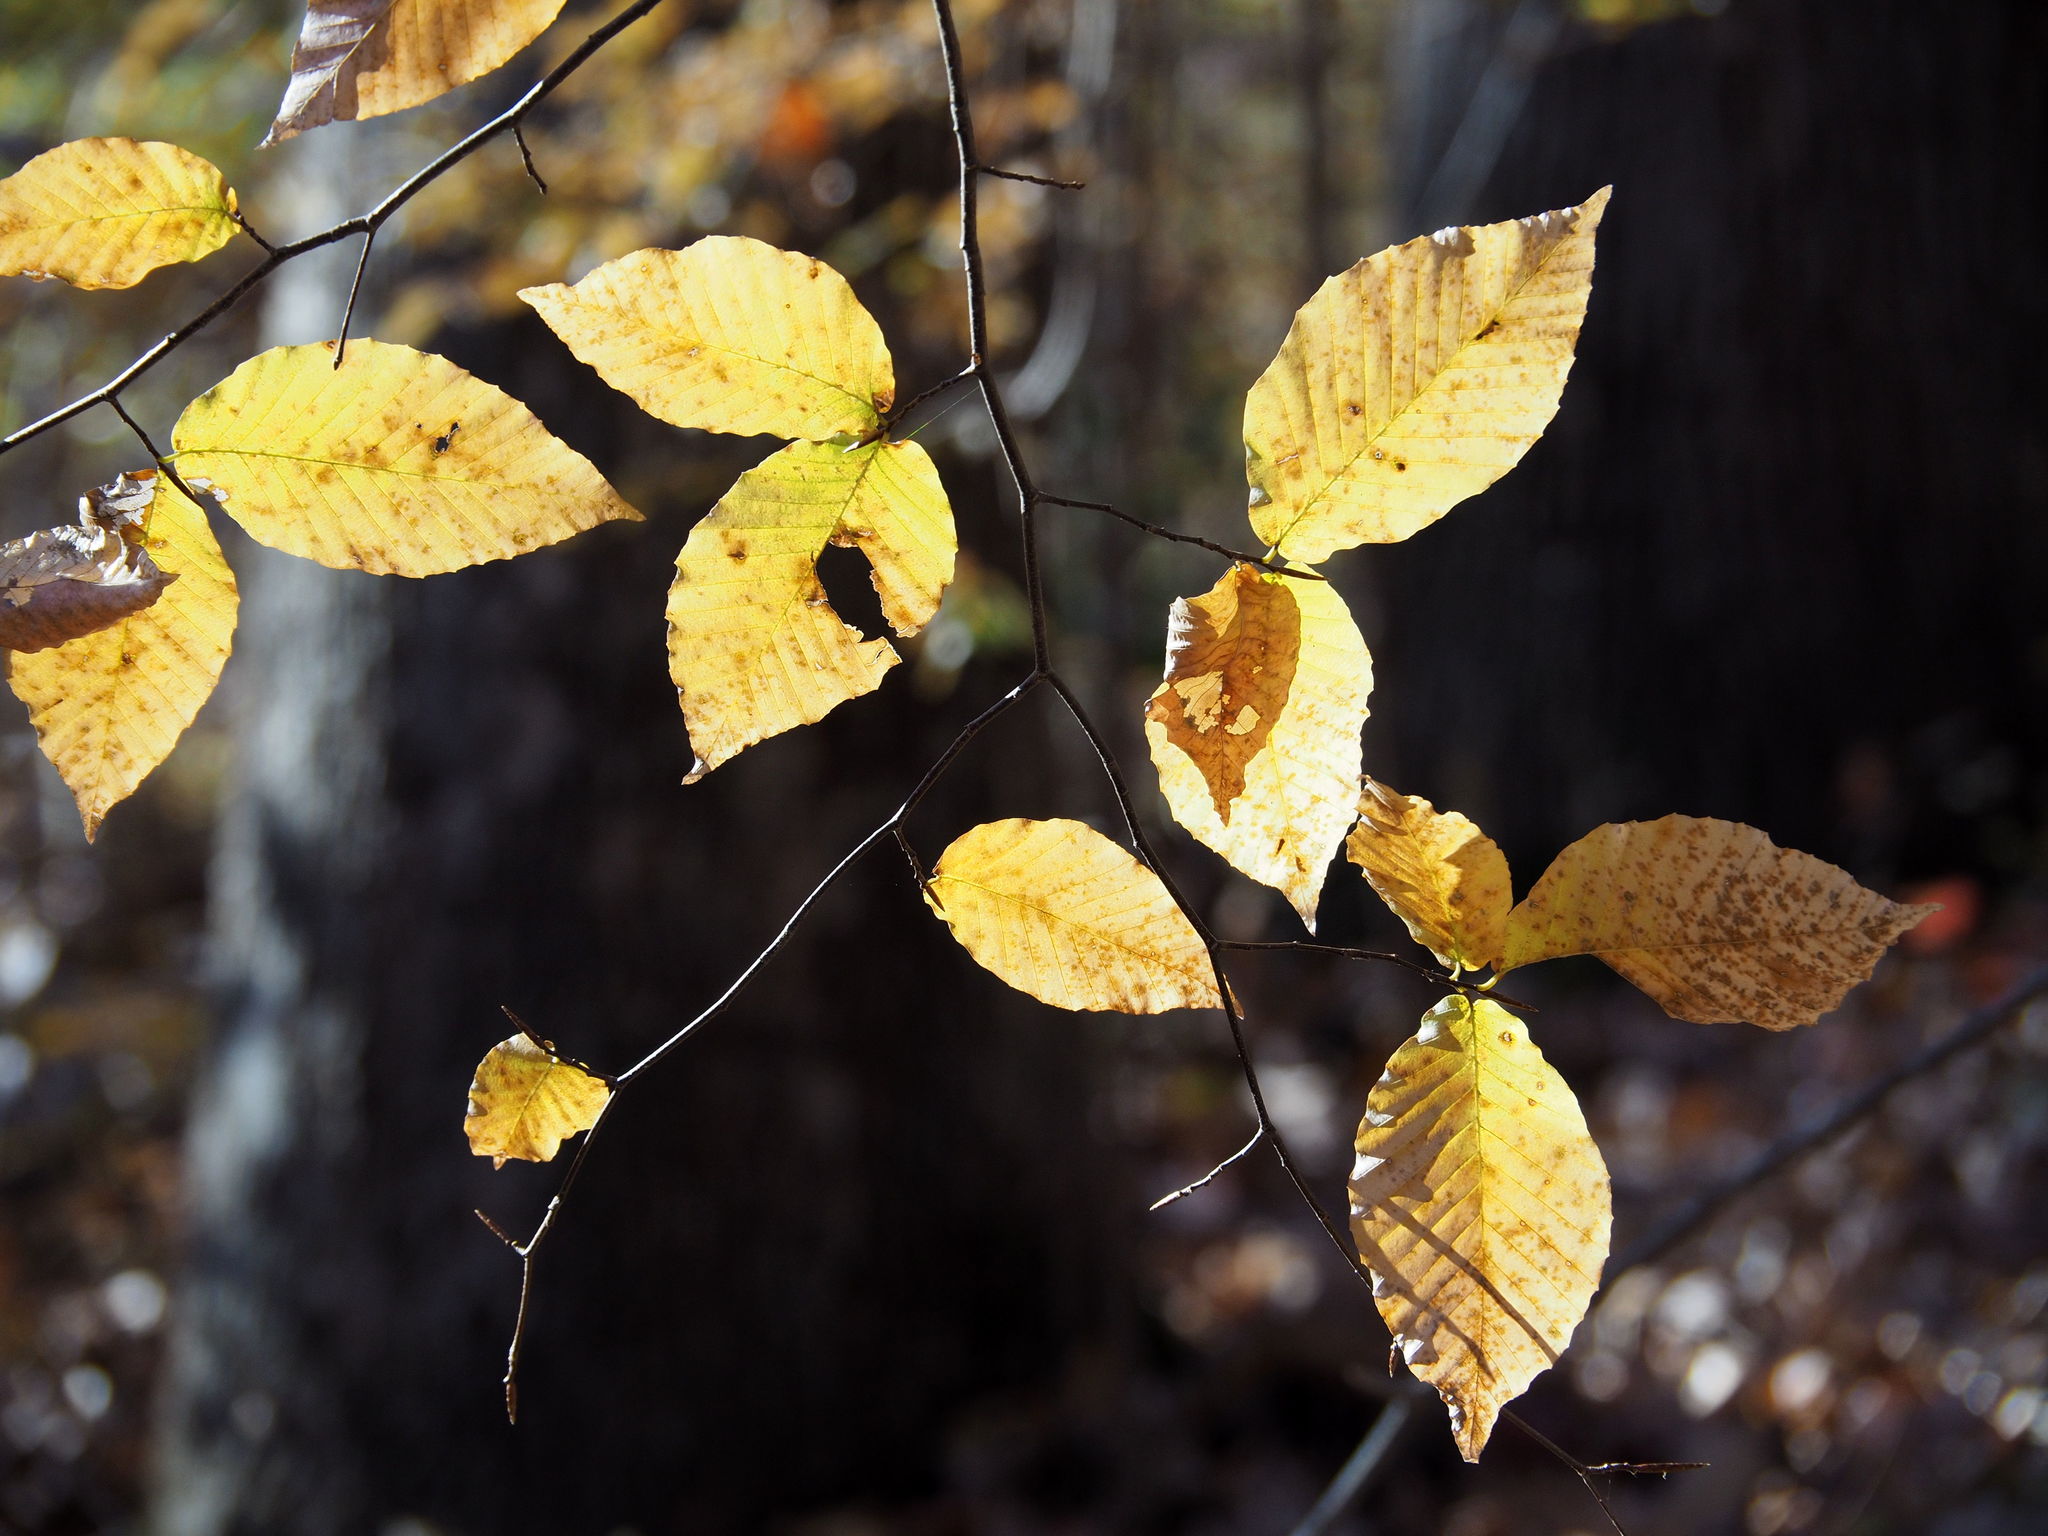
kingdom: Plantae
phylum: Tracheophyta
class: Magnoliopsida
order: Fagales
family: Fagaceae
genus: Fagus
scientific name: Fagus grandifolia
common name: American beech
